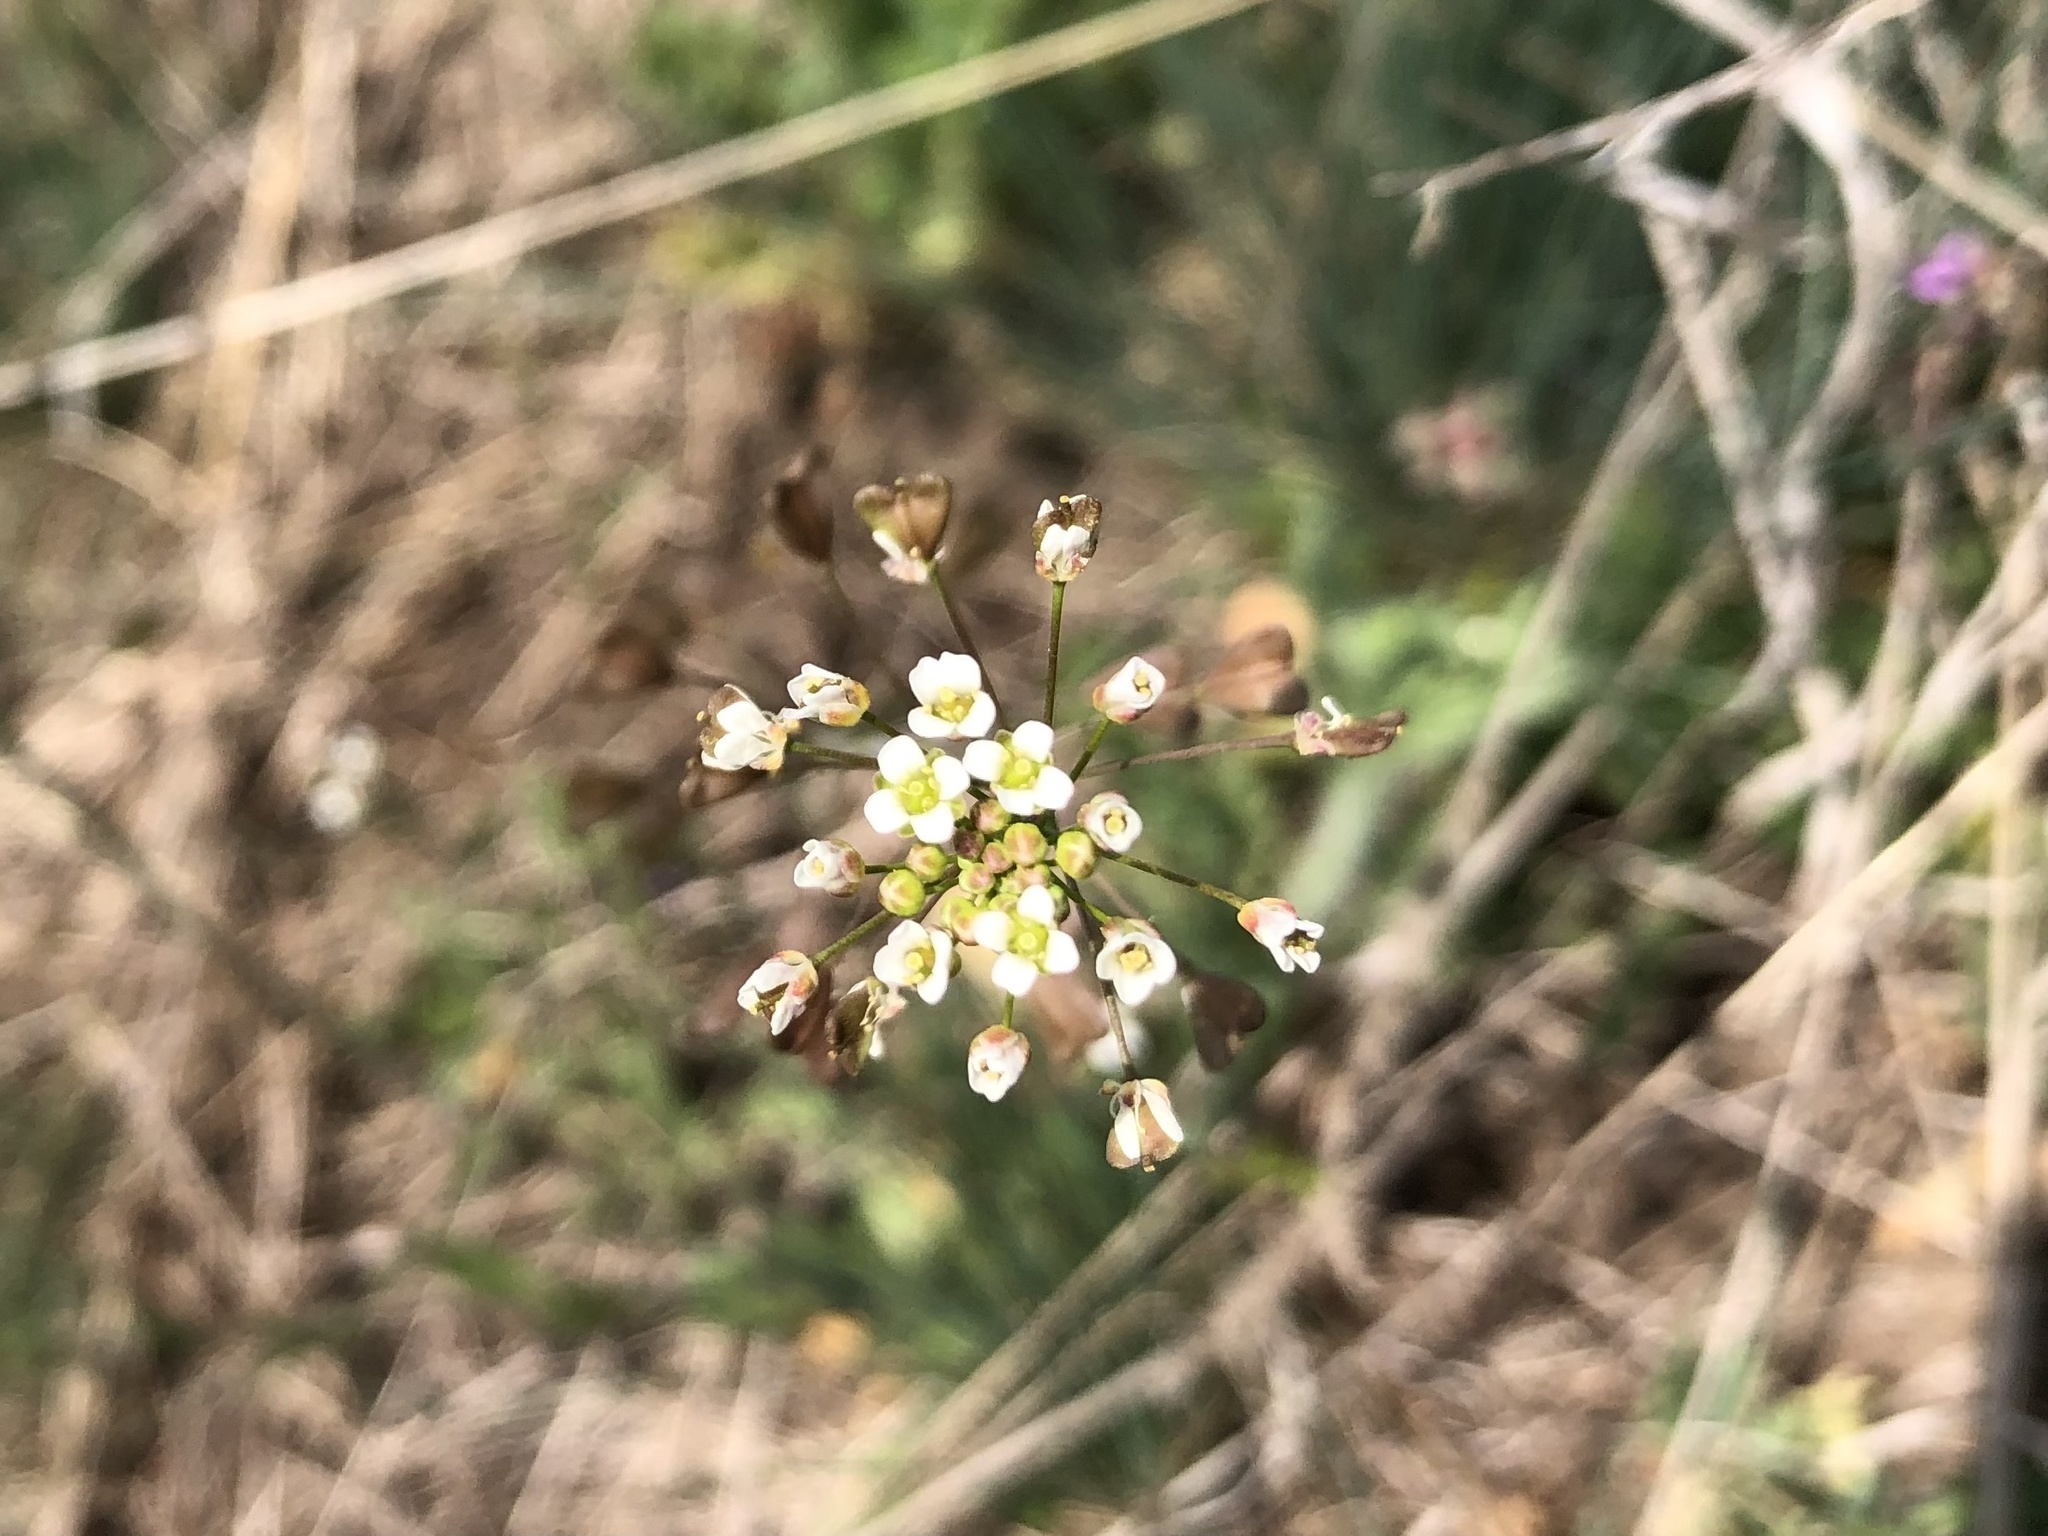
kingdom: Plantae
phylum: Tracheophyta
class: Magnoliopsida
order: Brassicales
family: Brassicaceae
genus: Capsella
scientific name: Capsella bursa-pastoris
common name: Shepherd's purse
